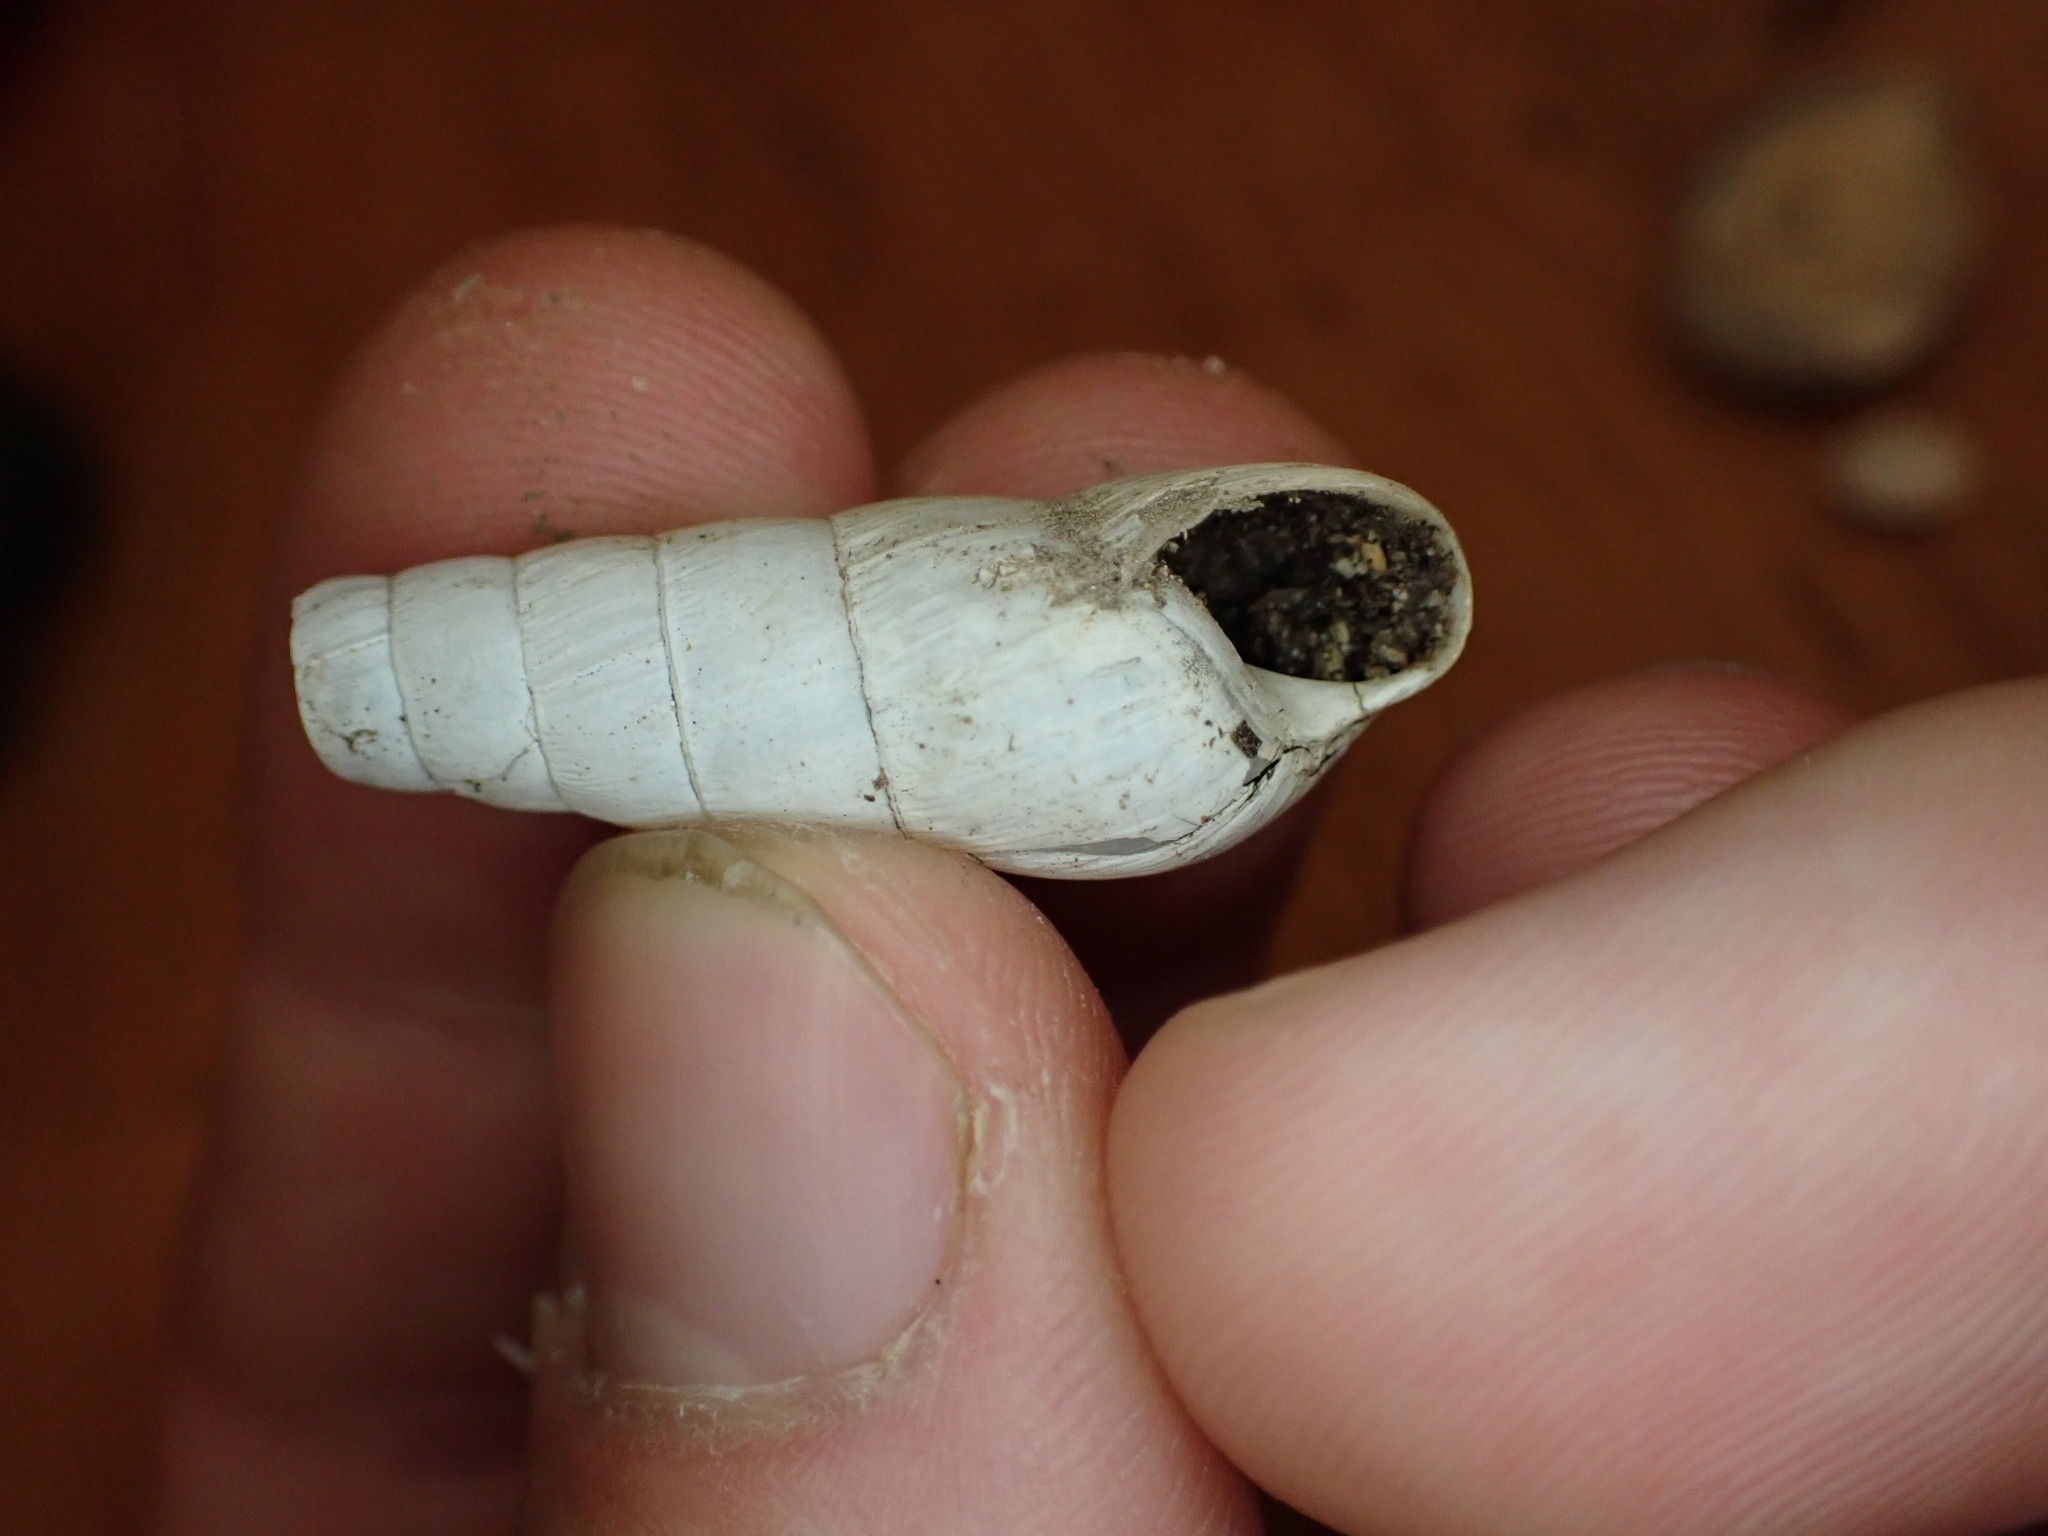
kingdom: Animalia
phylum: Mollusca
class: Gastropoda
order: Stylommatophora
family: Achatinidae
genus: Rumina
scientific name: Rumina decollata
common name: Decollate snail
